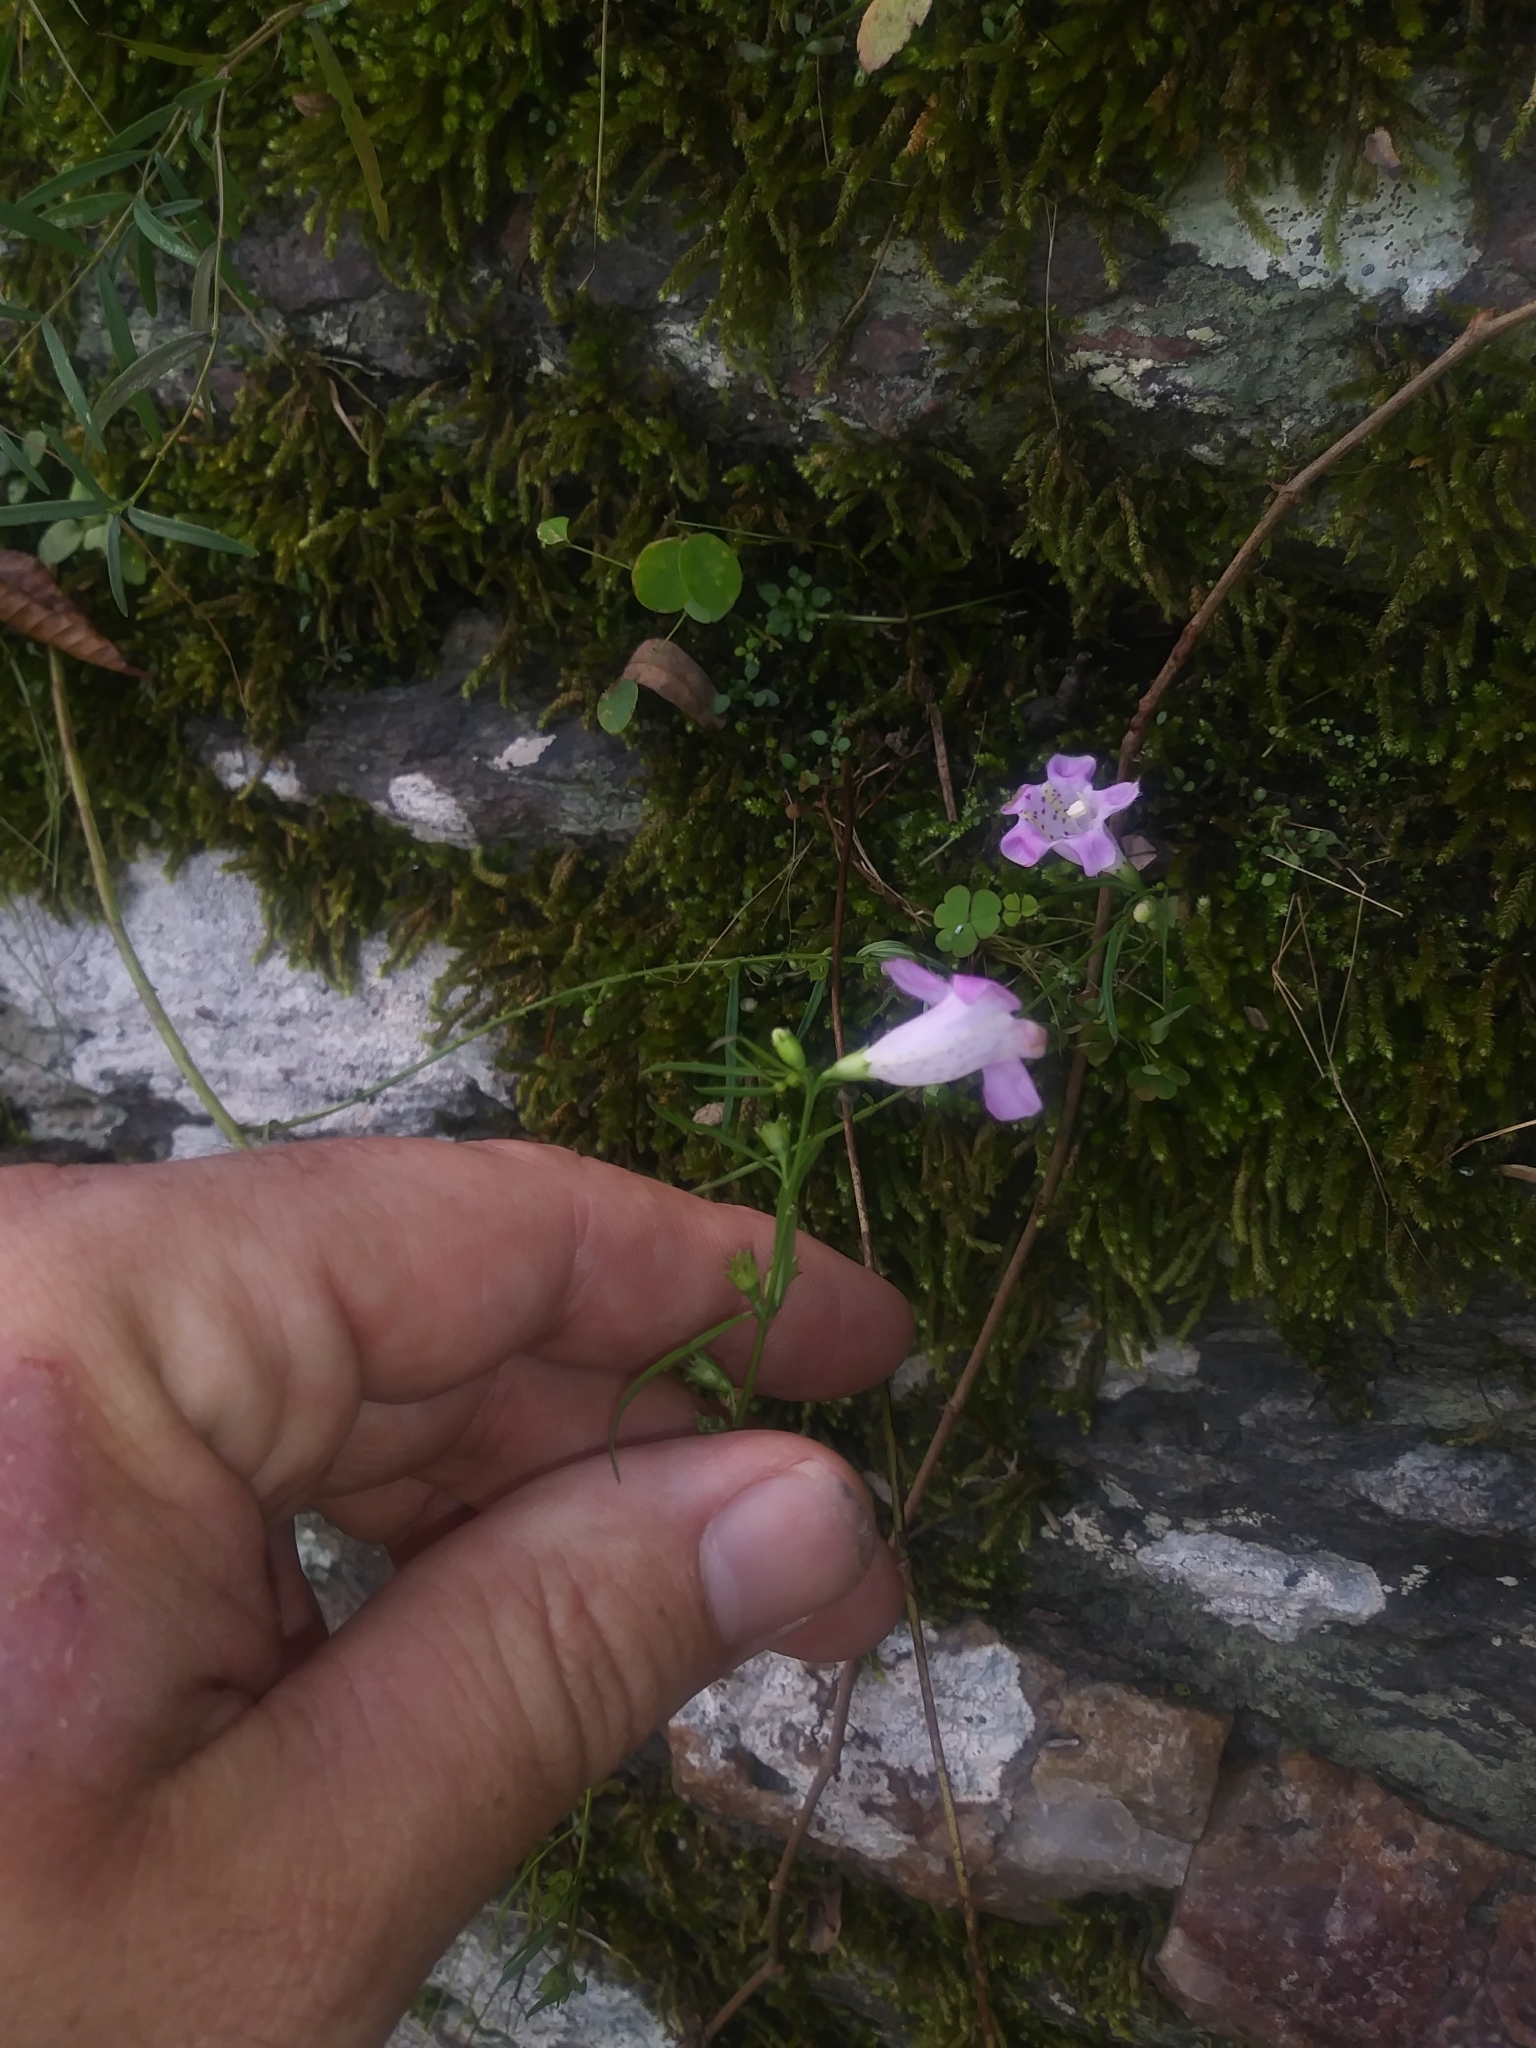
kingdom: Plantae
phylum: Tracheophyta
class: Magnoliopsida
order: Lamiales
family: Orobanchaceae
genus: Agalinis
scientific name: Agalinis purpurea
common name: Purple false foxglove
